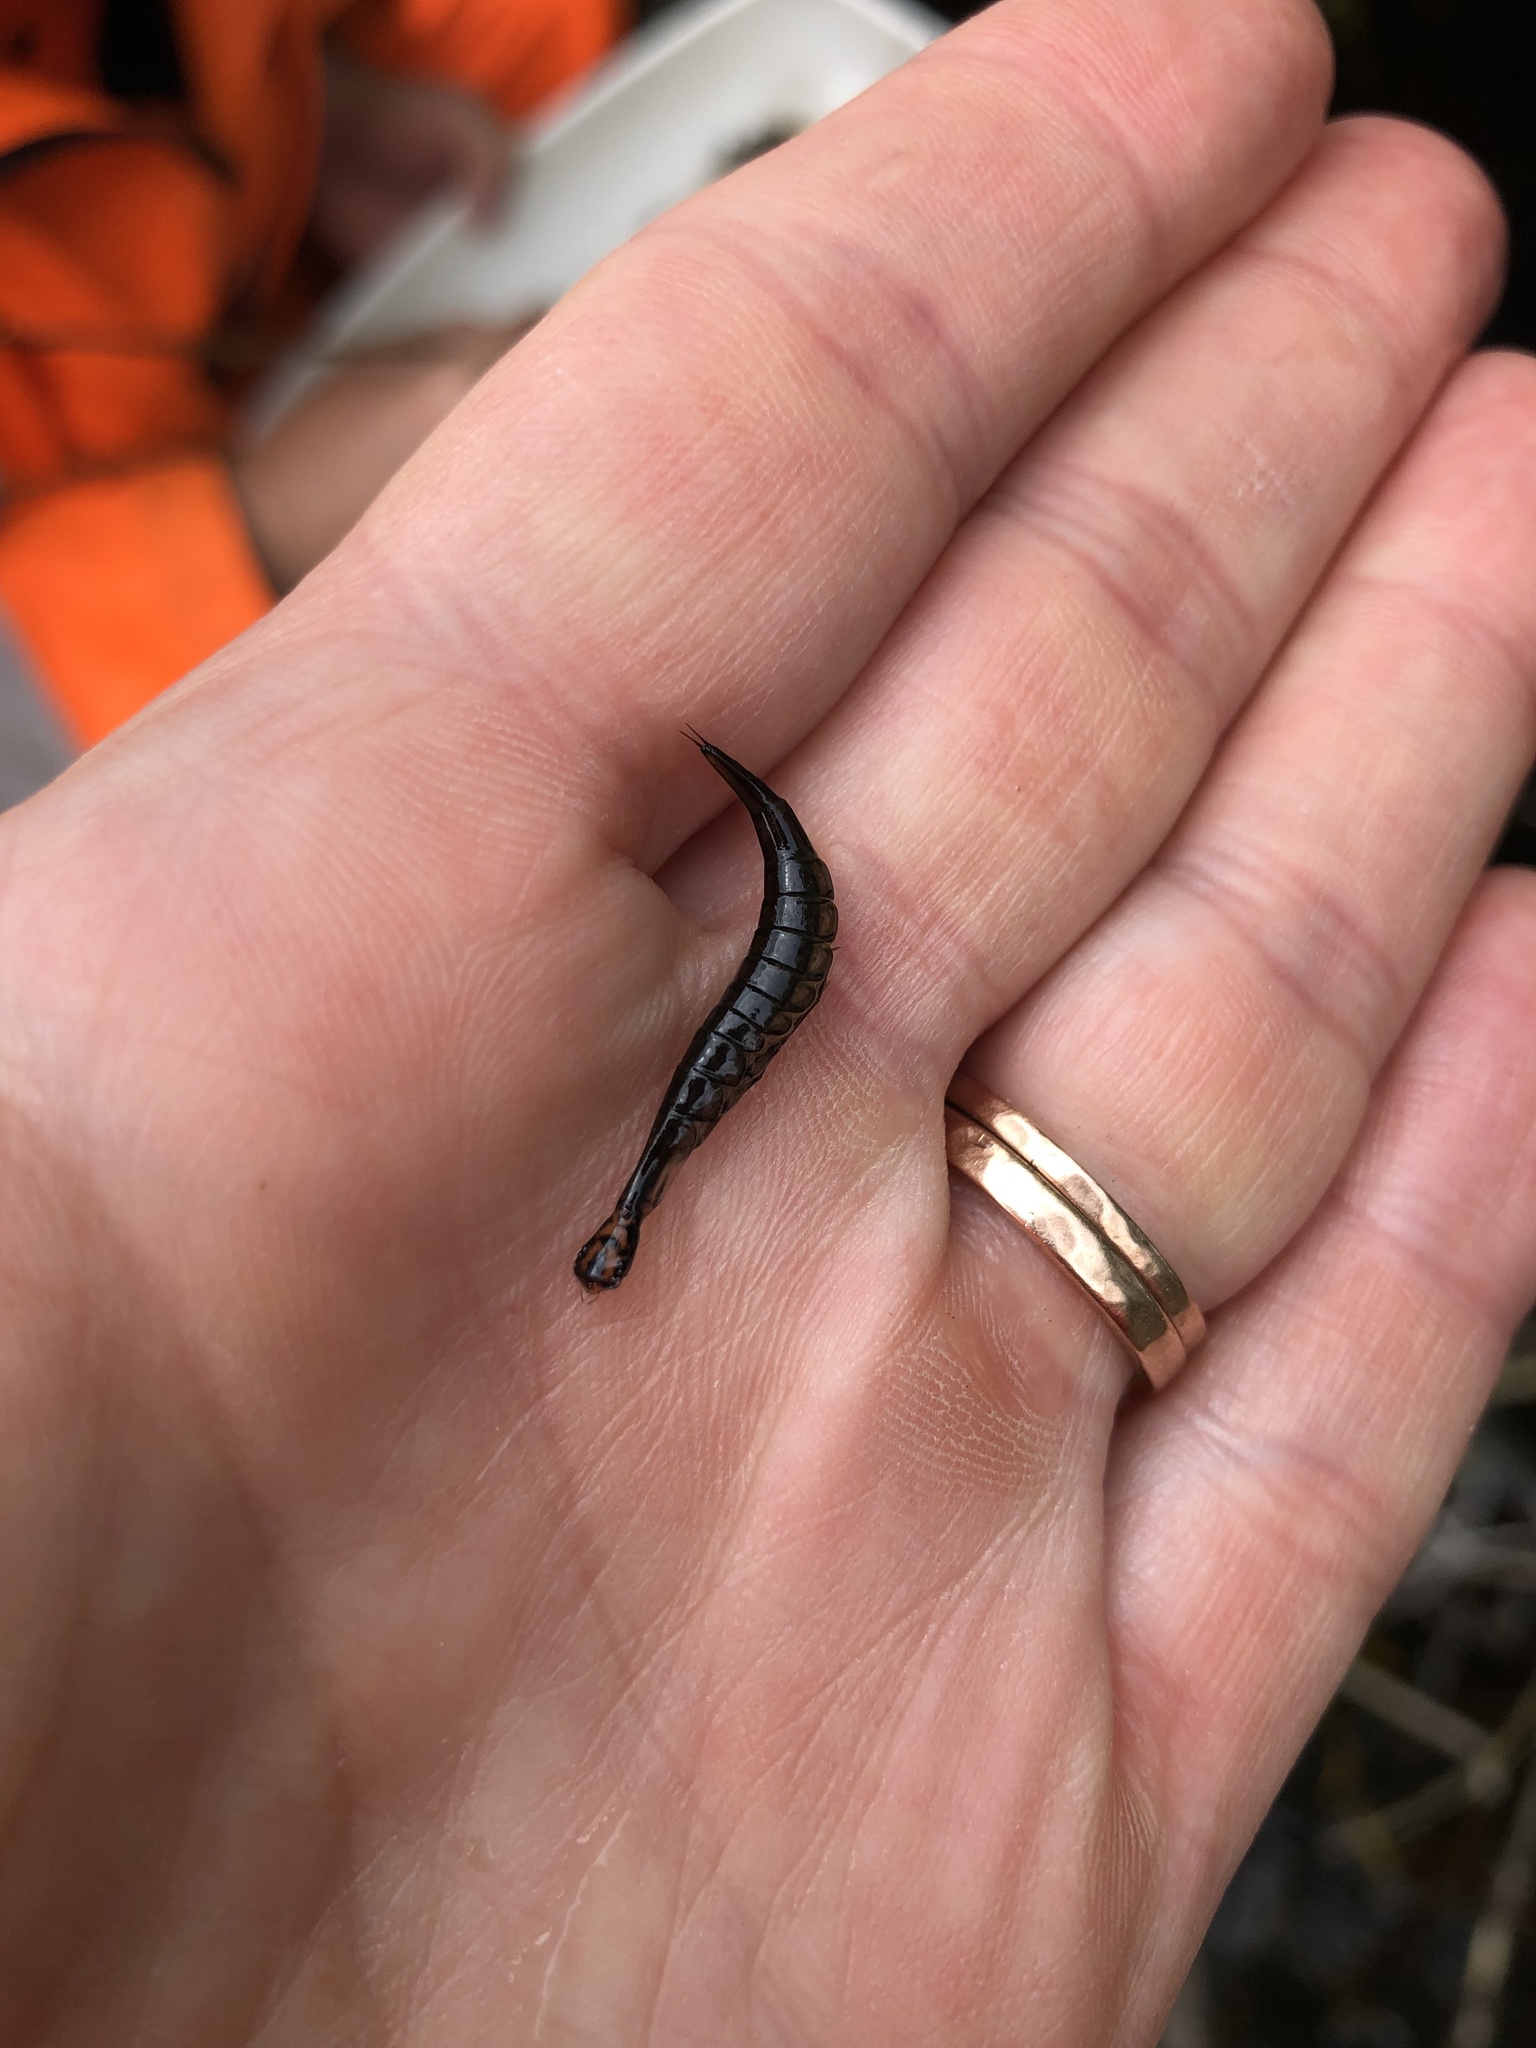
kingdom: Animalia
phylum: Arthropoda
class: Insecta
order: Coleoptera
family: Dytiscidae
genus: Acilius
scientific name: Acilius sulcatus
